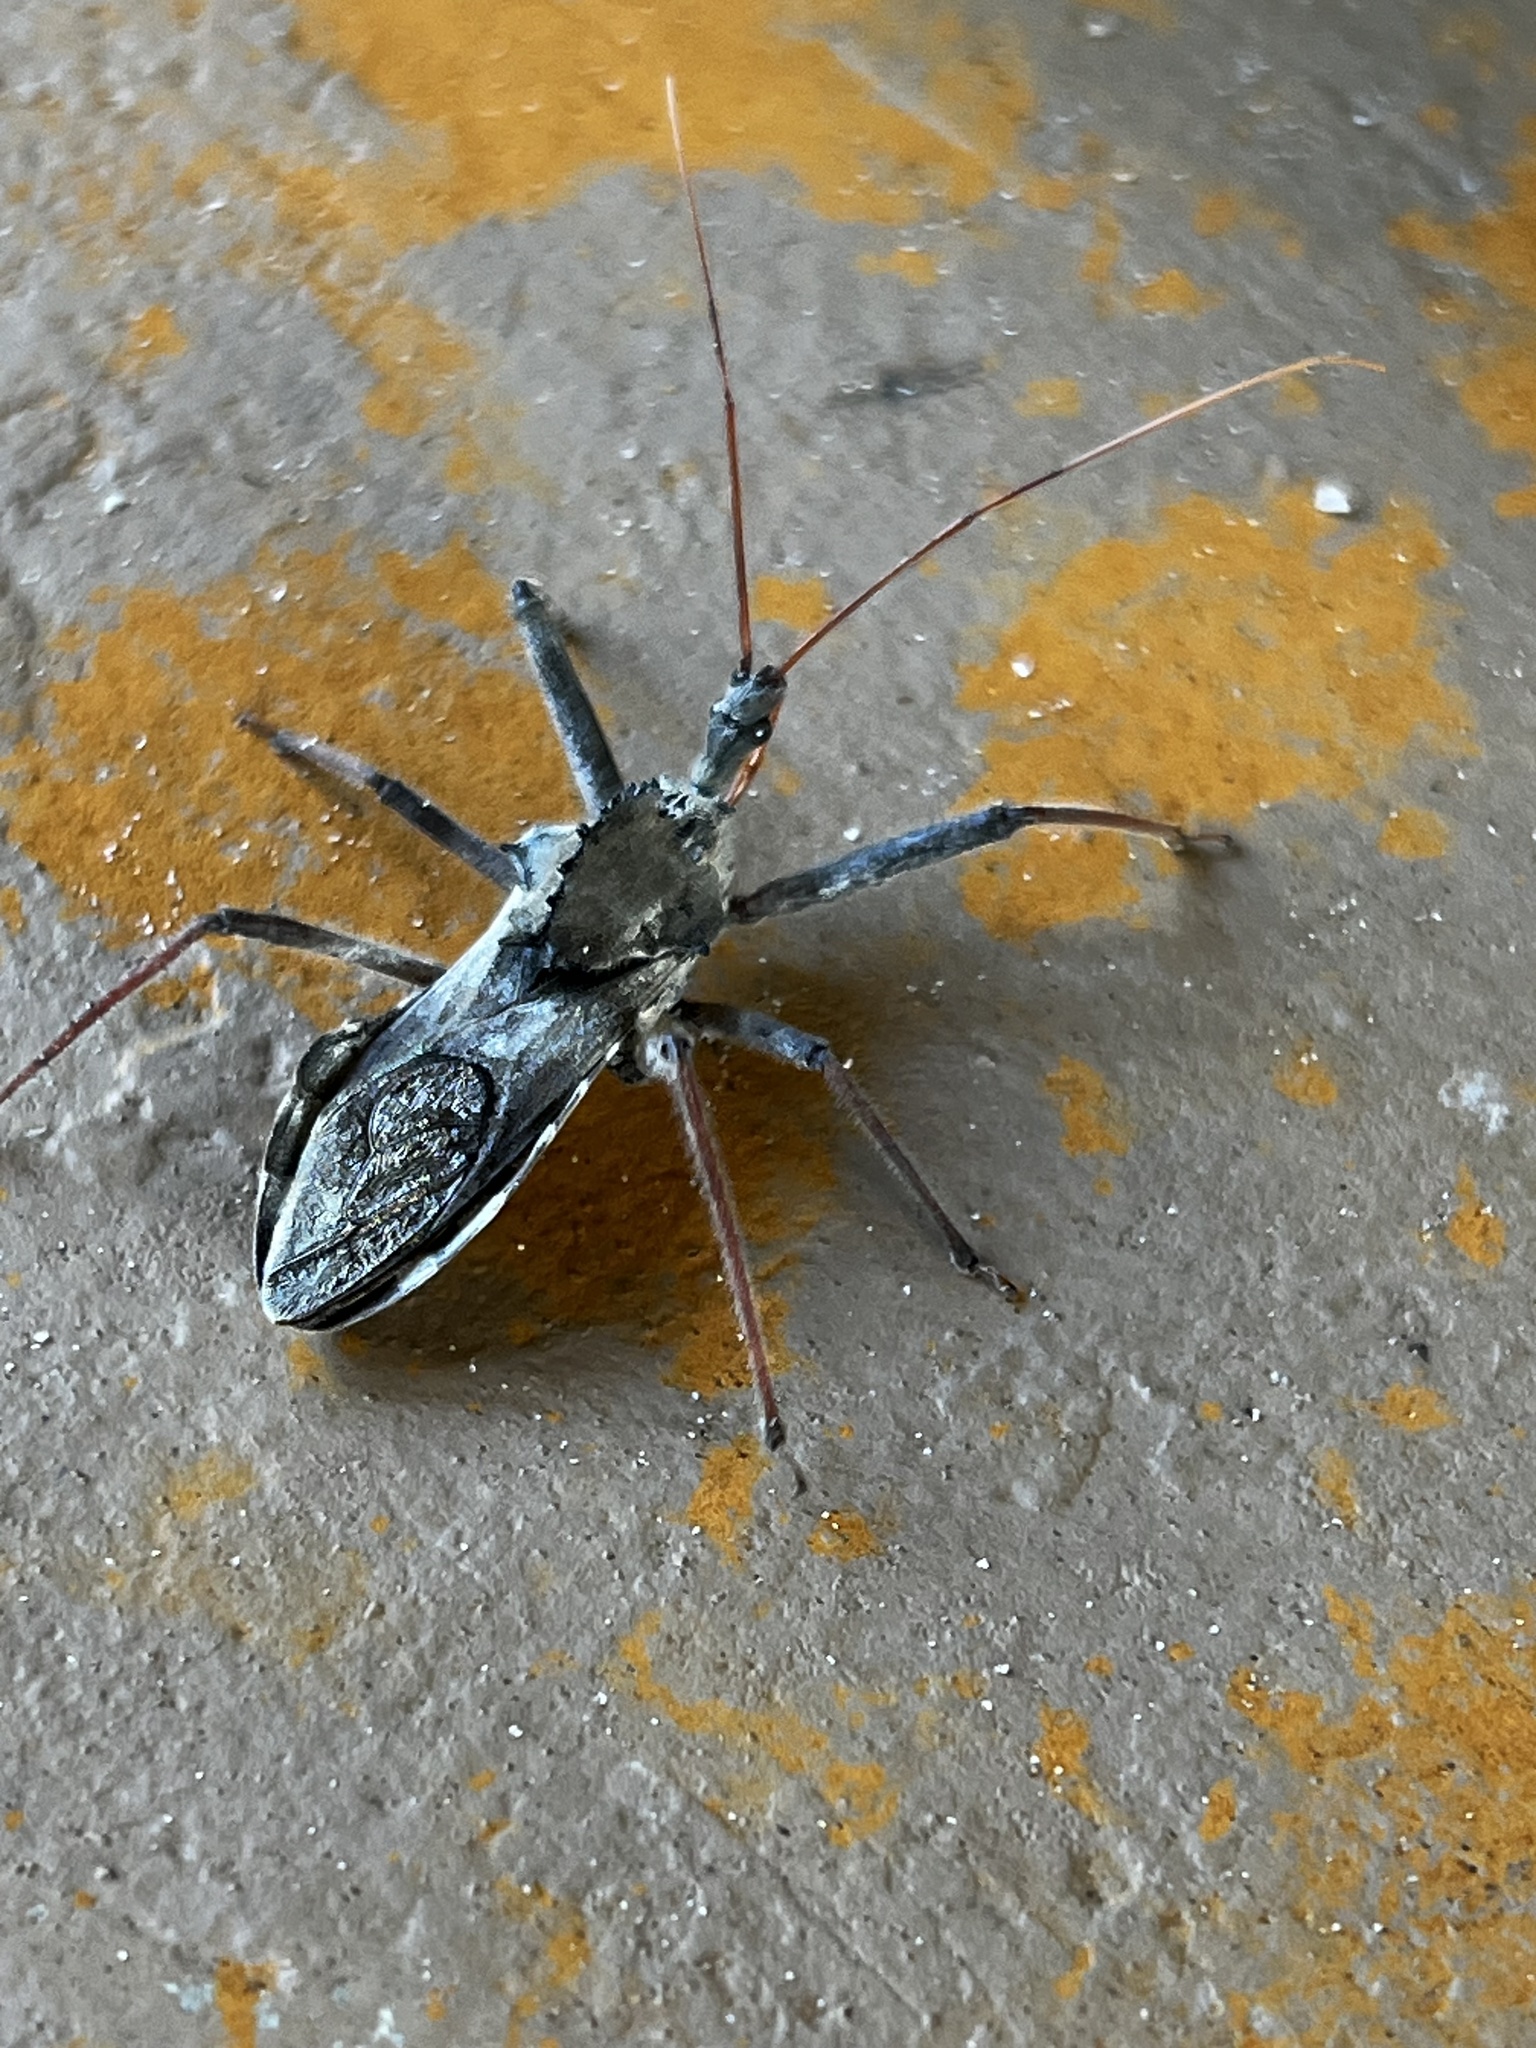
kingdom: Animalia
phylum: Arthropoda
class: Insecta
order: Hemiptera
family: Reduviidae
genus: Arilus
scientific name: Arilus cristatus
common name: North american wheel bug
